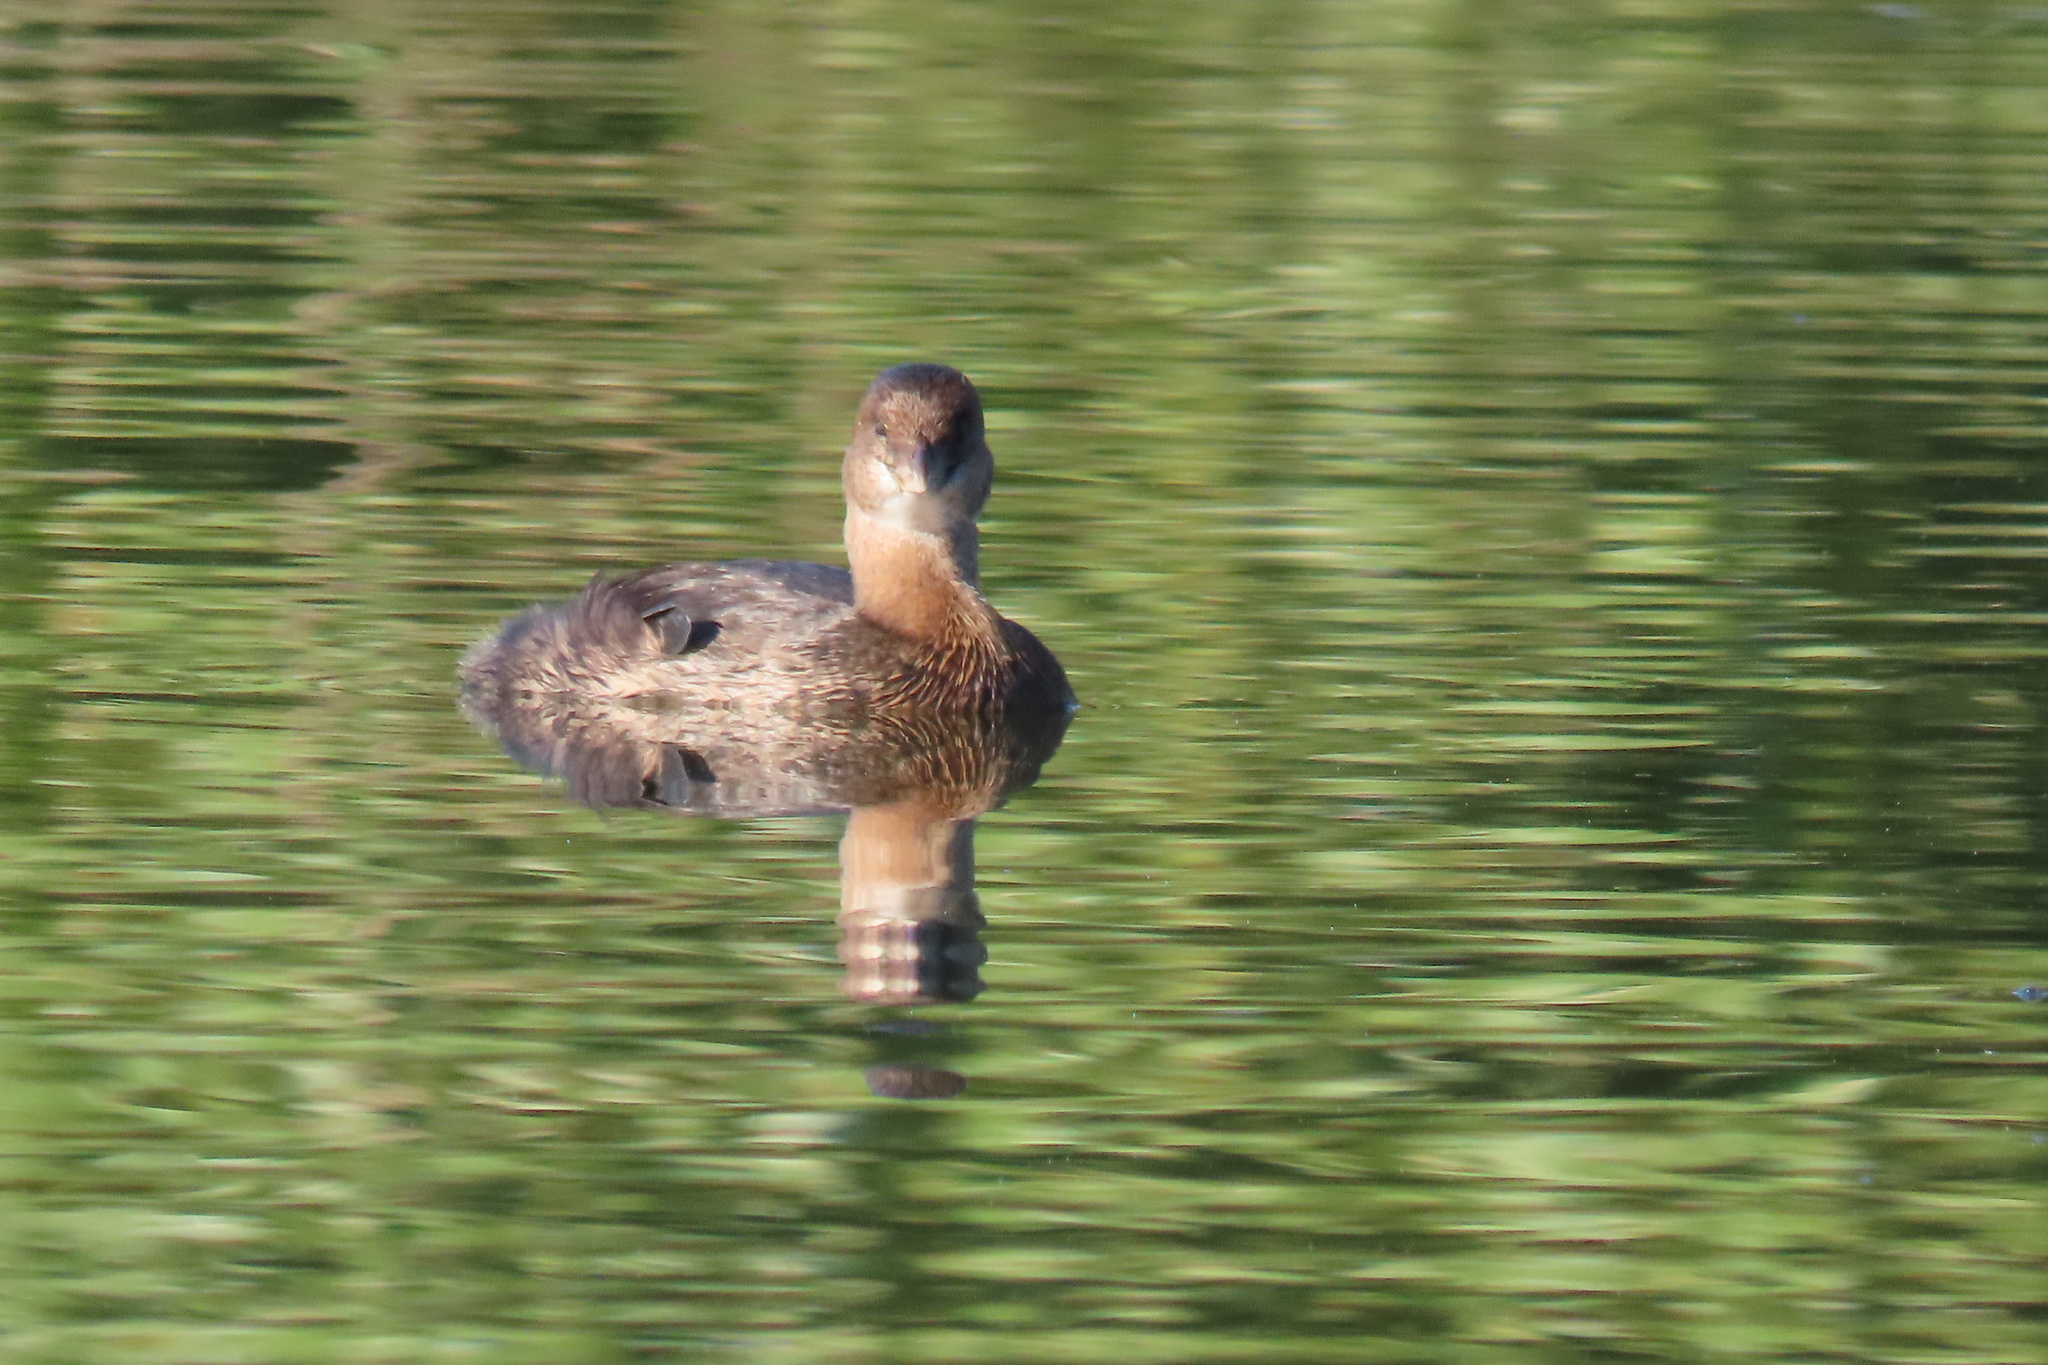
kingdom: Animalia
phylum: Chordata
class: Aves
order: Podicipediformes
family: Podicipedidae
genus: Podilymbus
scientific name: Podilymbus podiceps
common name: Pied-billed grebe
